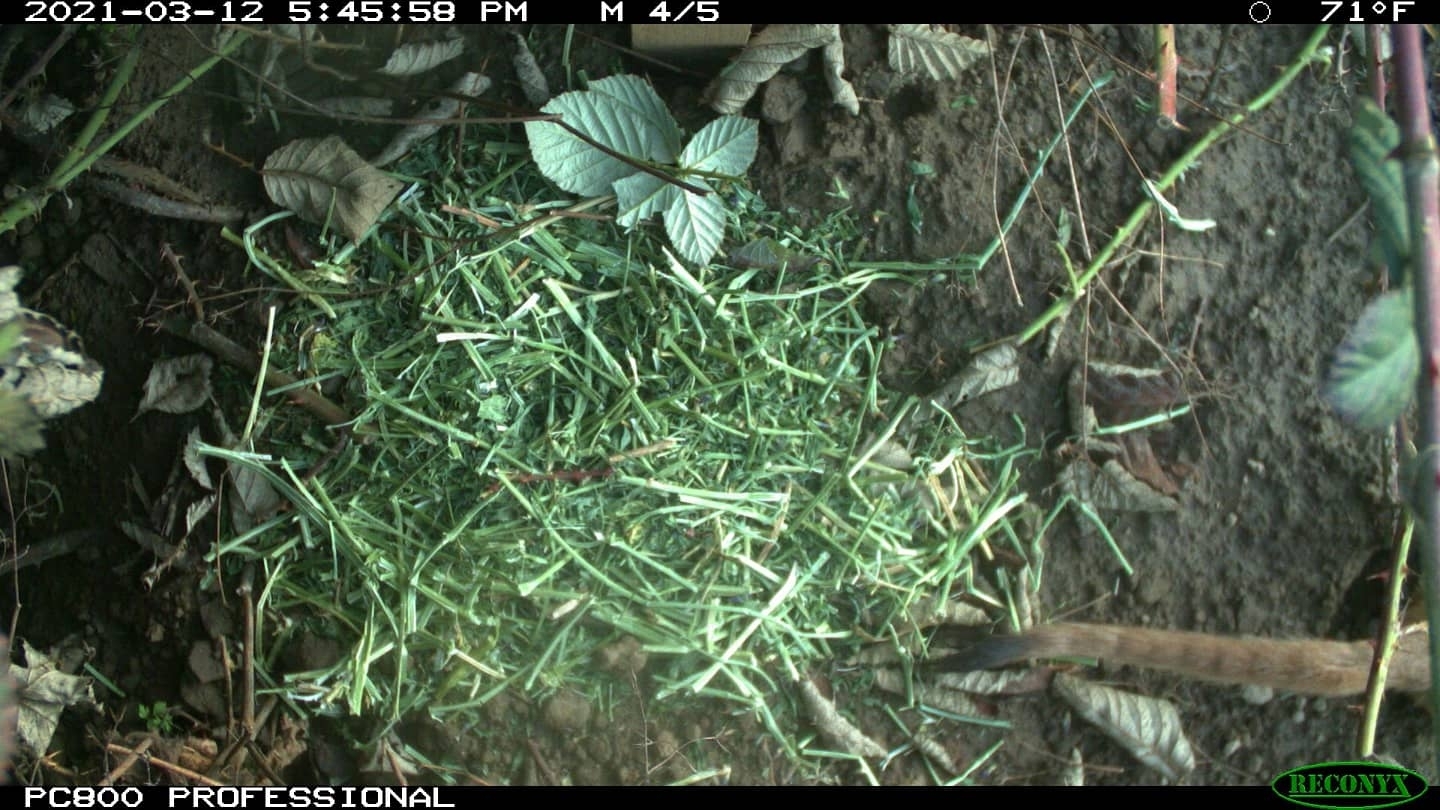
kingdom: Animalia
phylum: Chordata
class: Mammalia
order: Carnivora
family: Mustelidae
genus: Mustela
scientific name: Mustela
